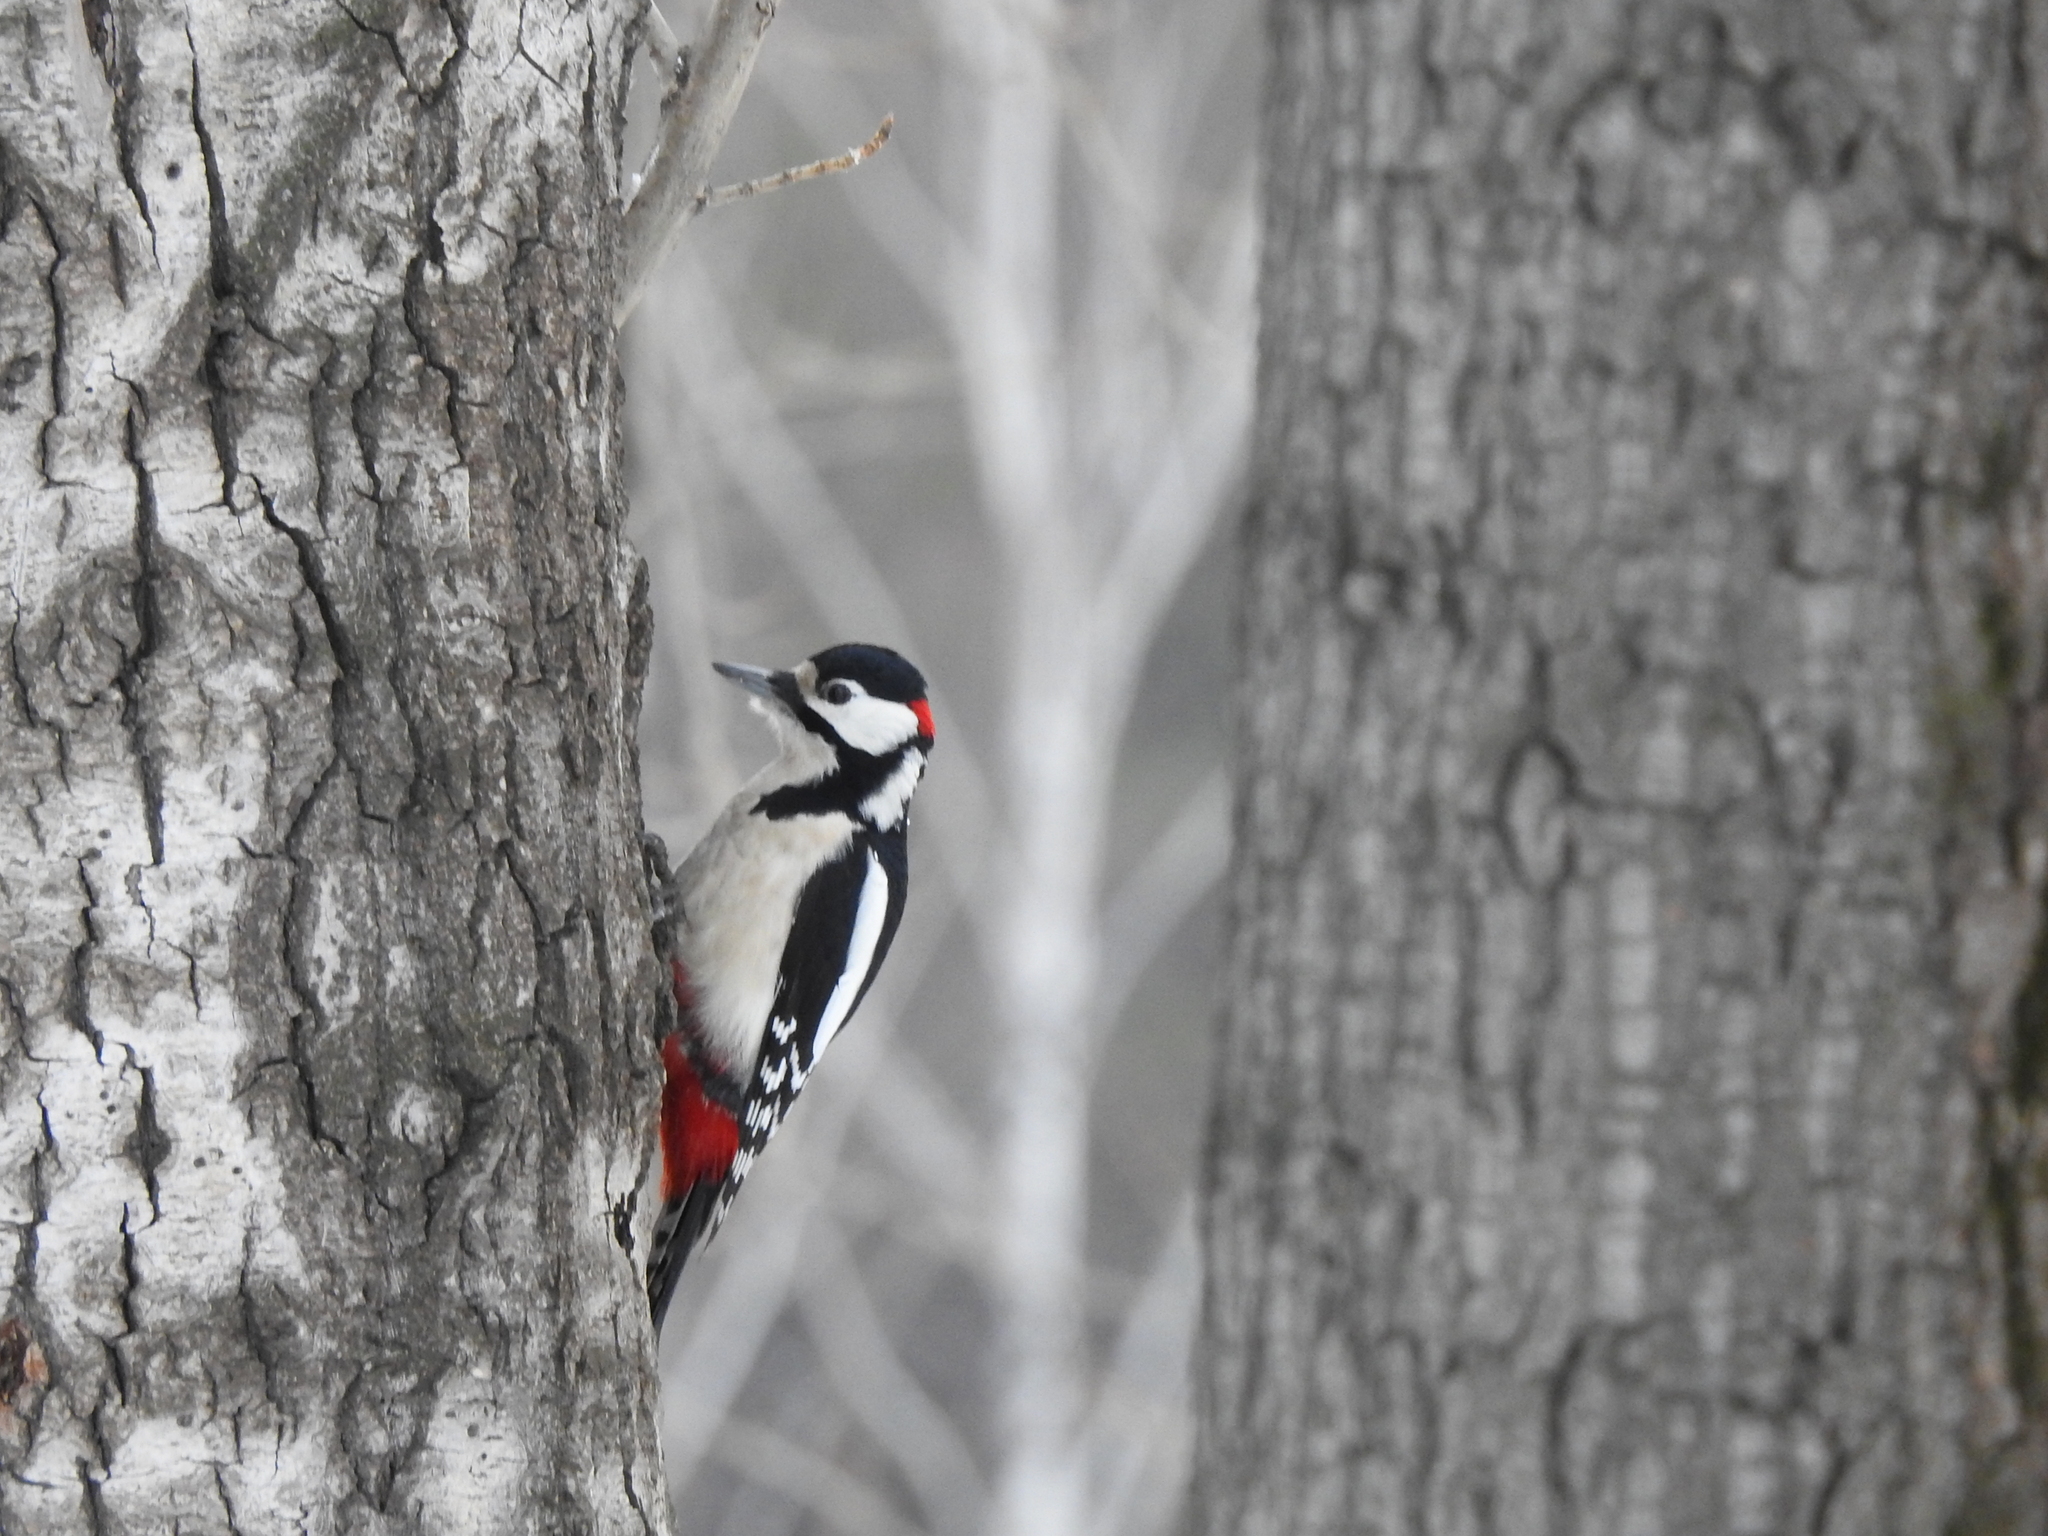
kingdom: Animalia
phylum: Chordata
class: Aves
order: Piciformes
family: Picidae
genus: Dendrocopos
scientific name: Dendrocopos major
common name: Great spotted woodpecker
